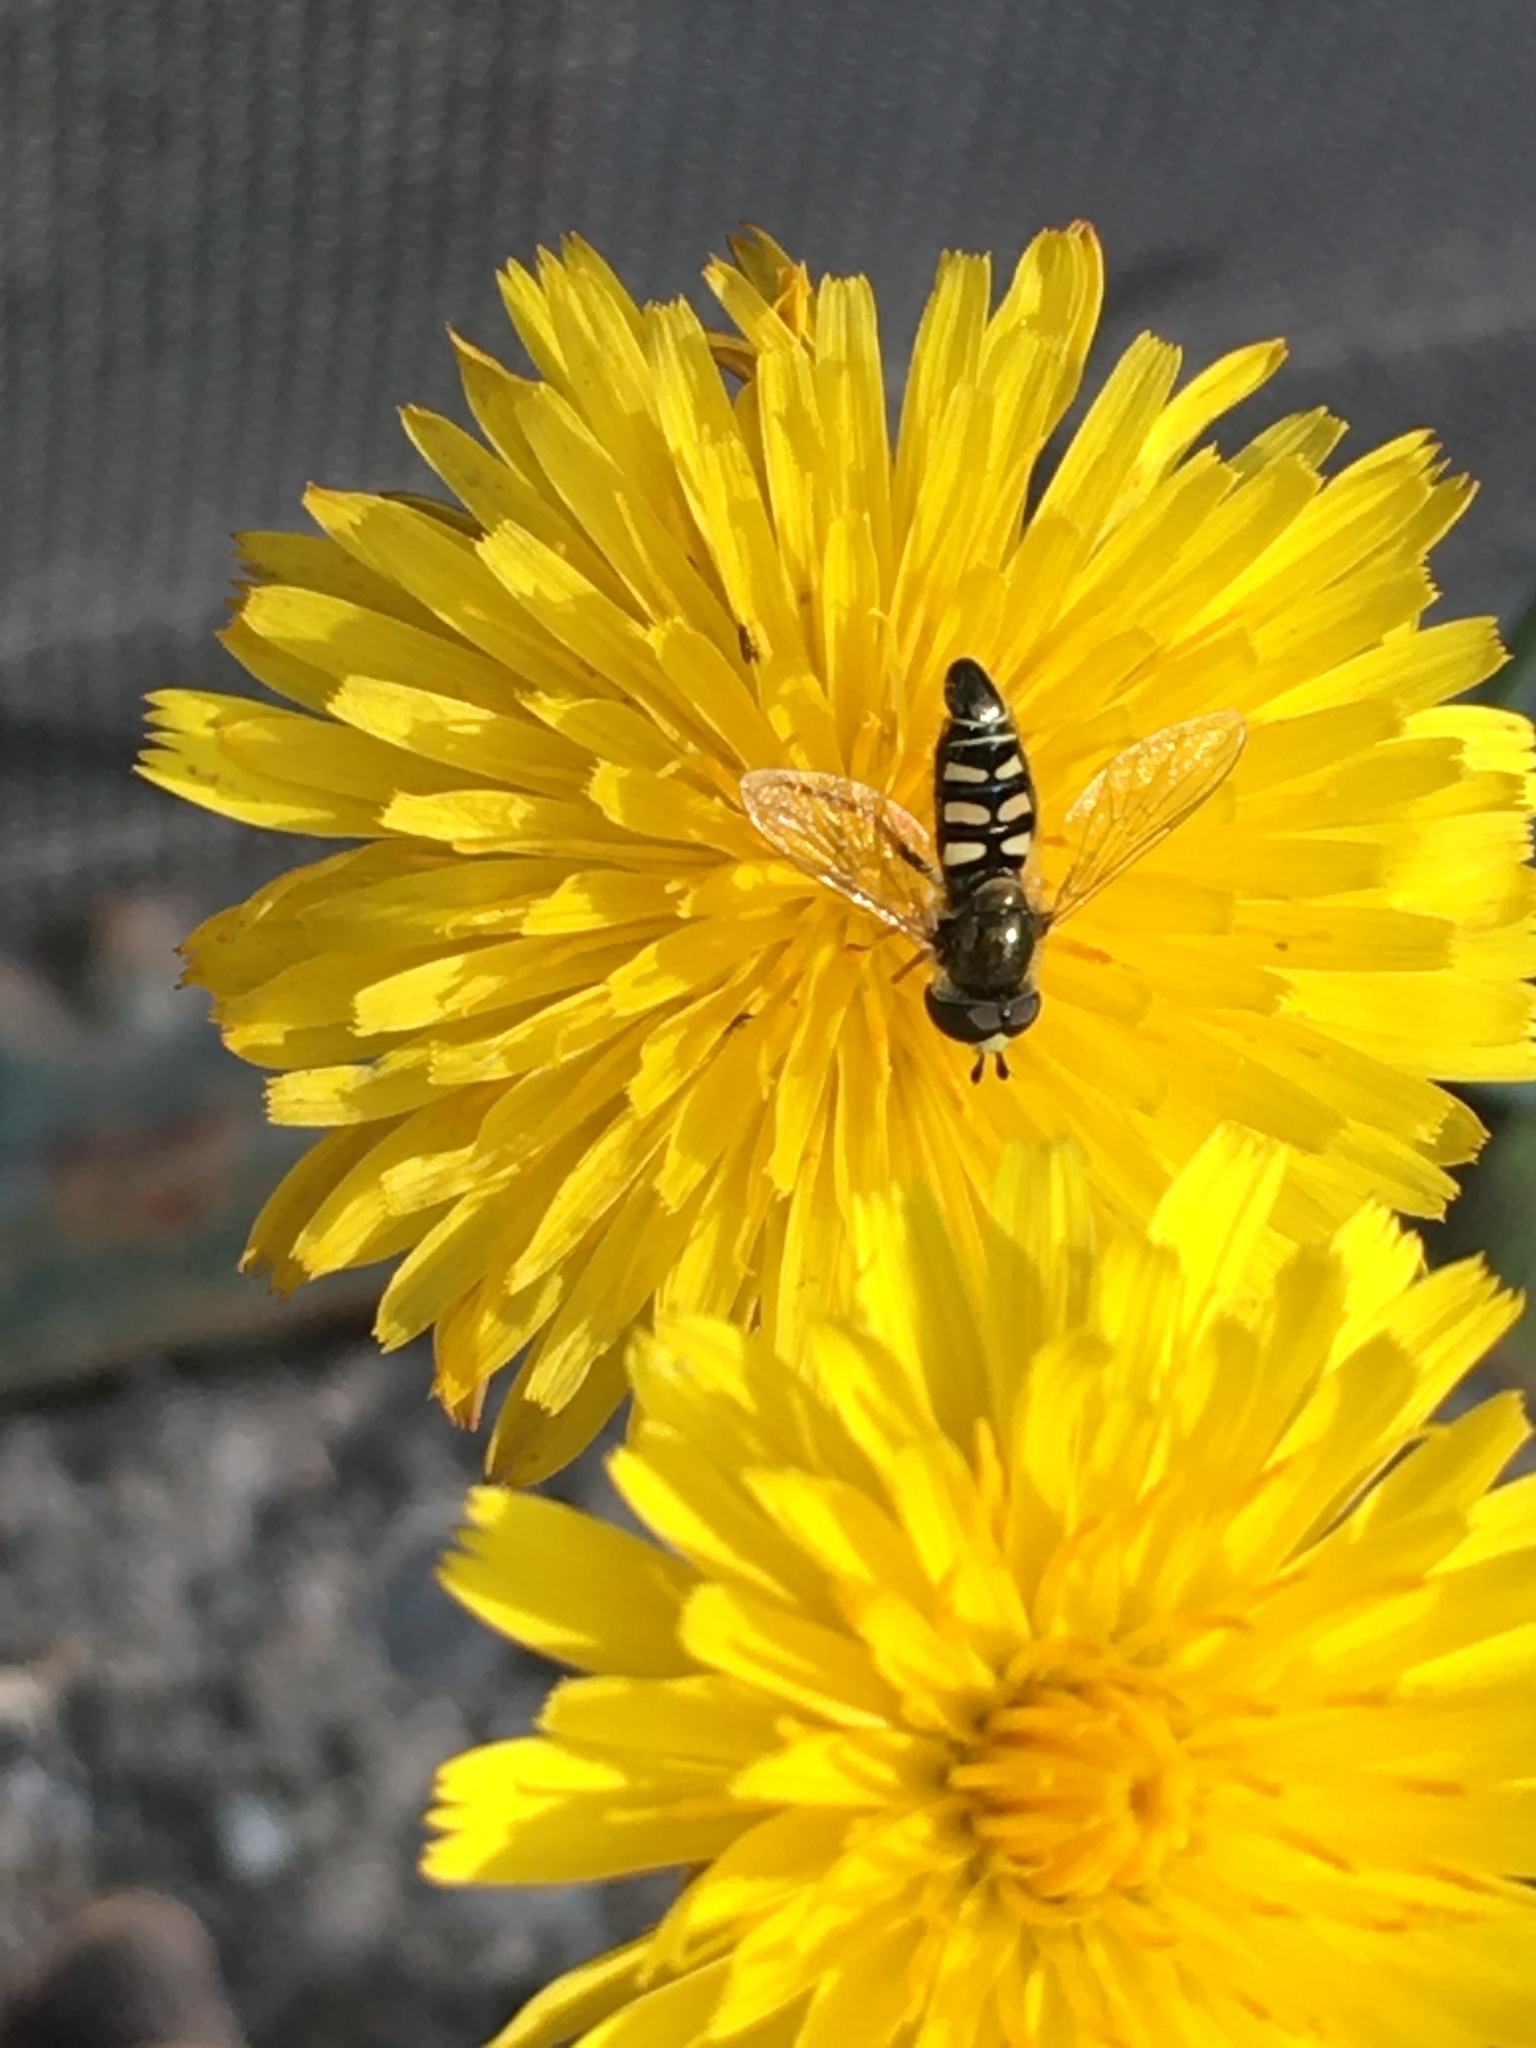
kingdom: Animalia
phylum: Arthropoda
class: Insecta
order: Diptera
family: Syrphidae
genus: Eupeodes
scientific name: Eupeodes volucris
